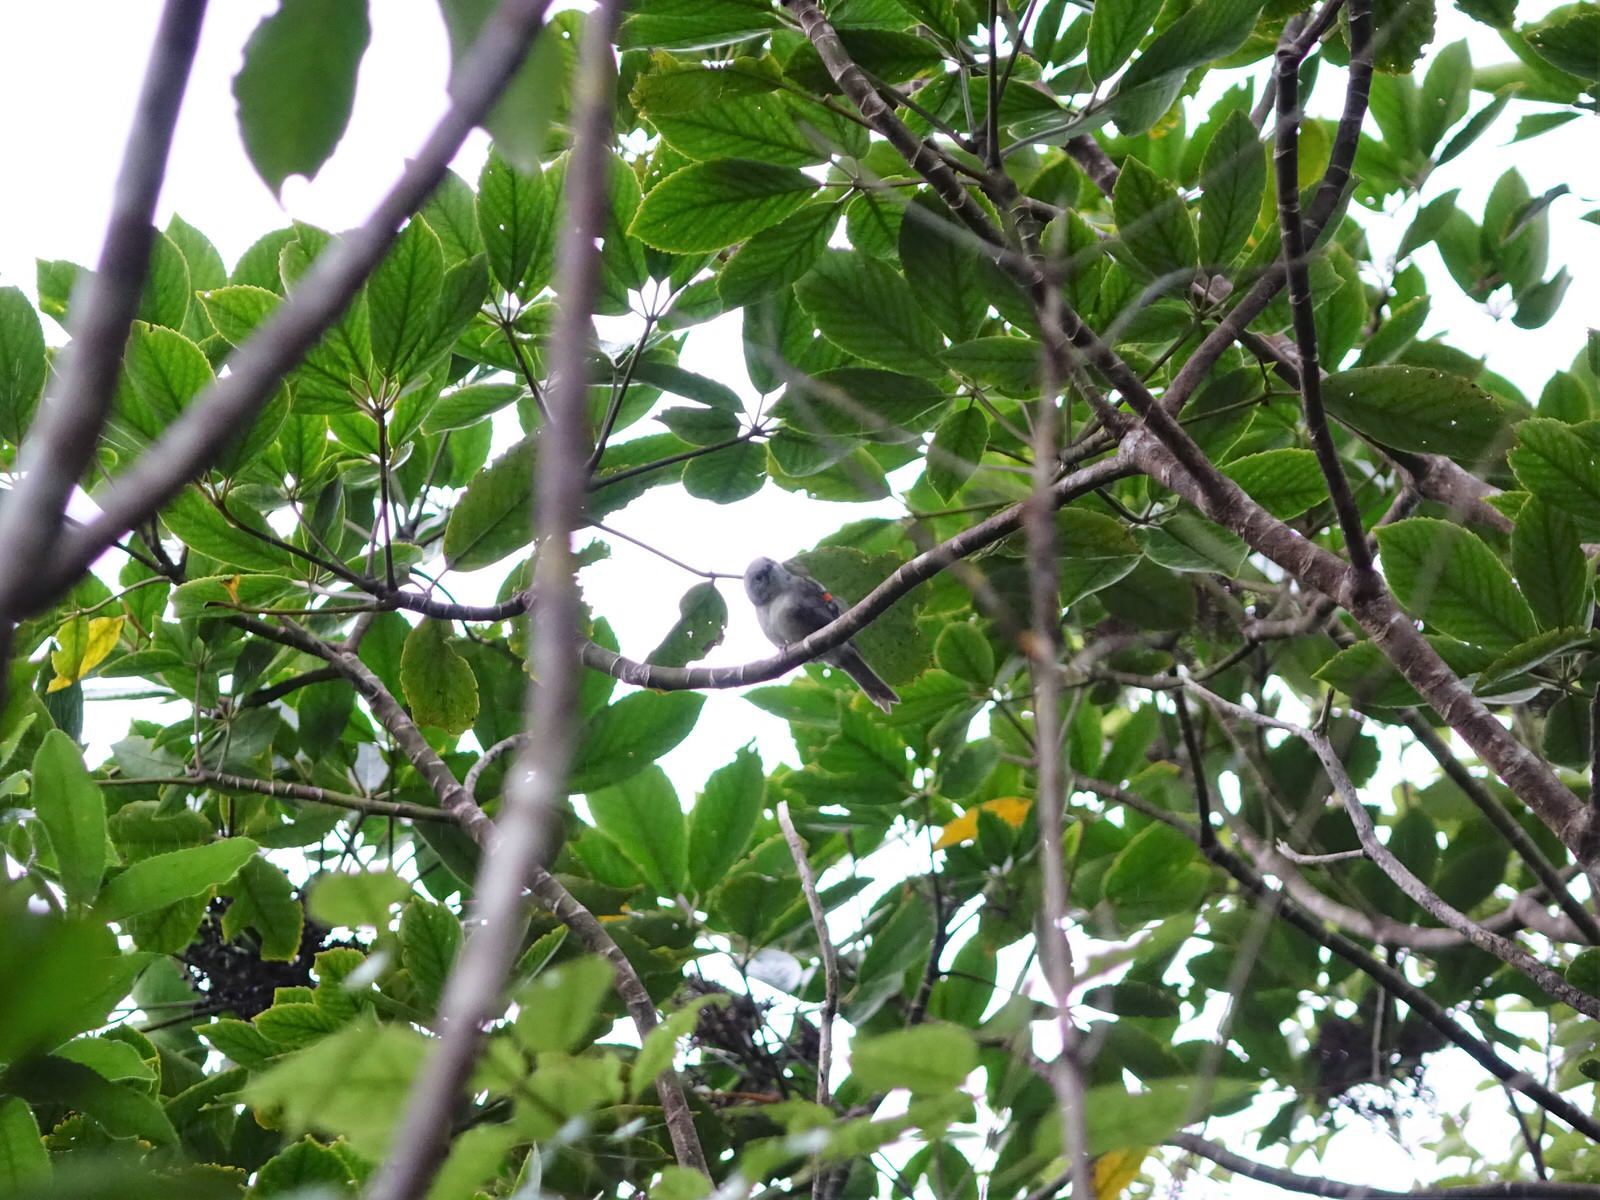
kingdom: Animalia
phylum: Chordata
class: Aves
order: Passeriformes
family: Acanthizidae
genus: Mohoua
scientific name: Mohoua albicilla
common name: Whitehead
